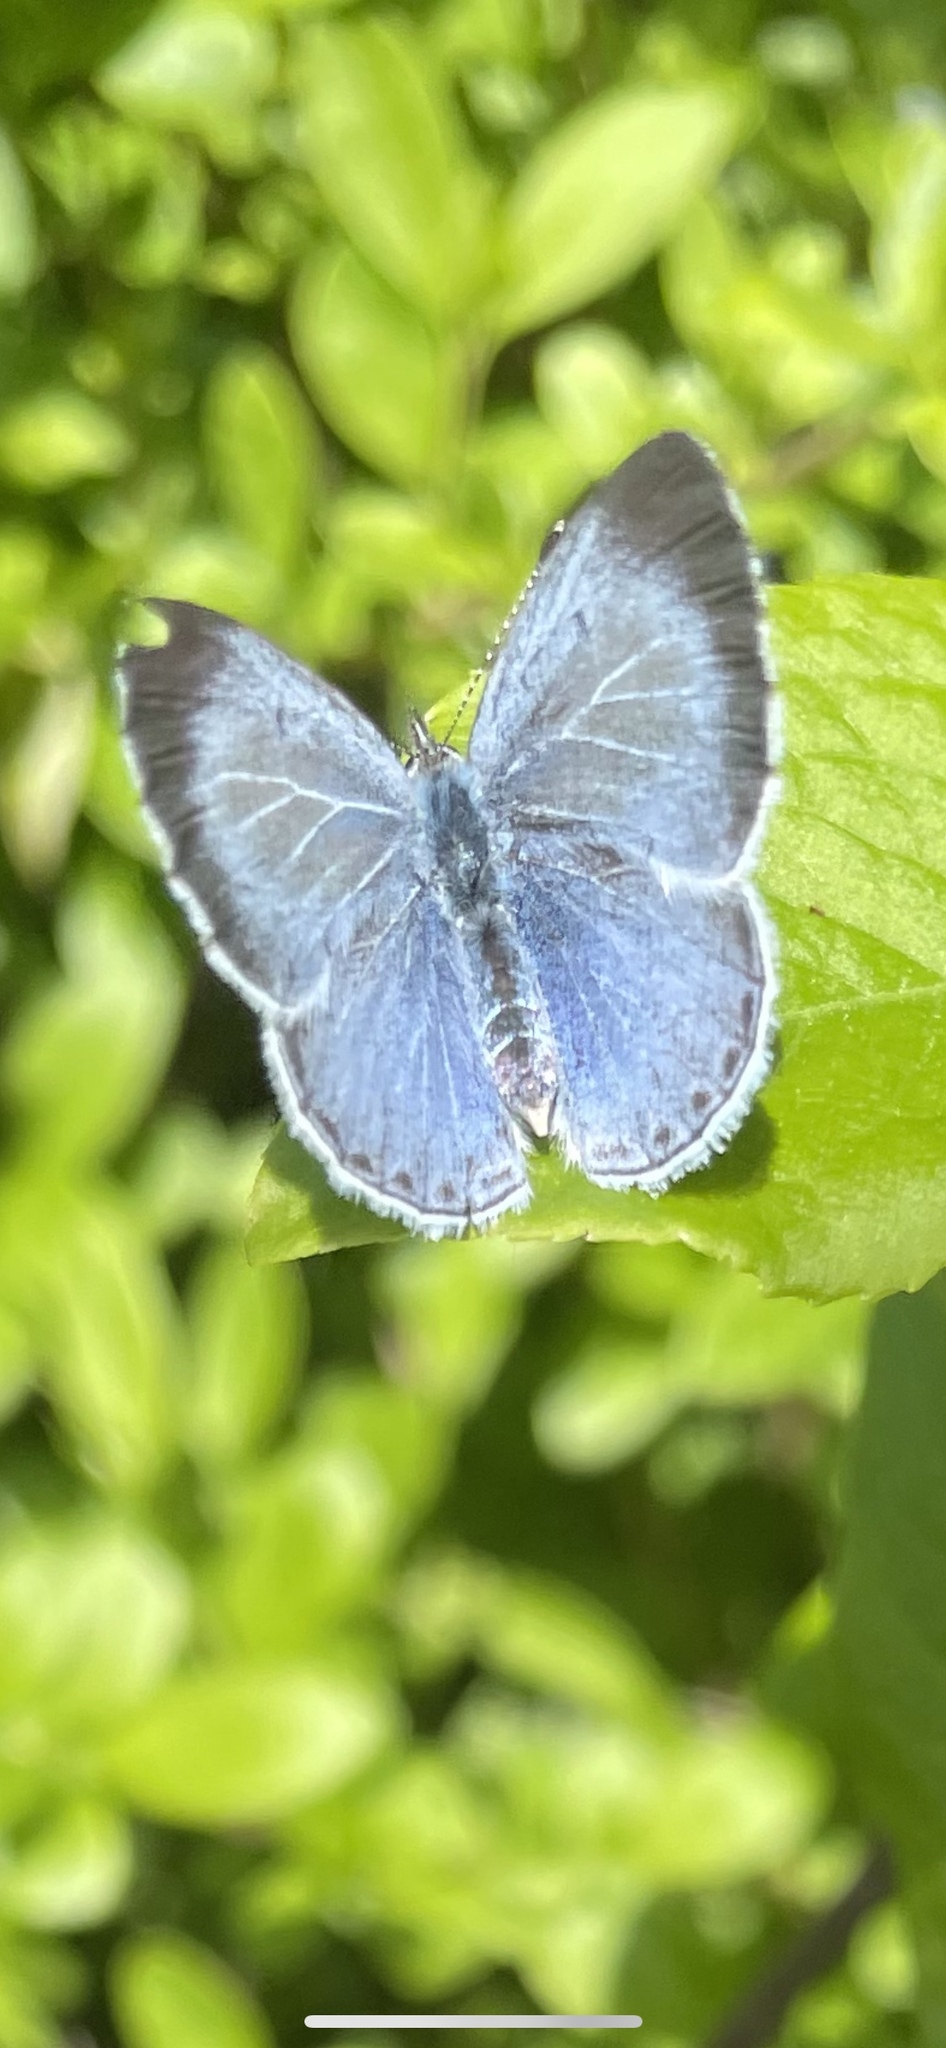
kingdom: Animalia
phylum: Arthropoda
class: Insecta
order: Lepidoptera
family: Lycaenidae
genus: Celastrina
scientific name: Celastrina argiolus
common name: Holly blue
